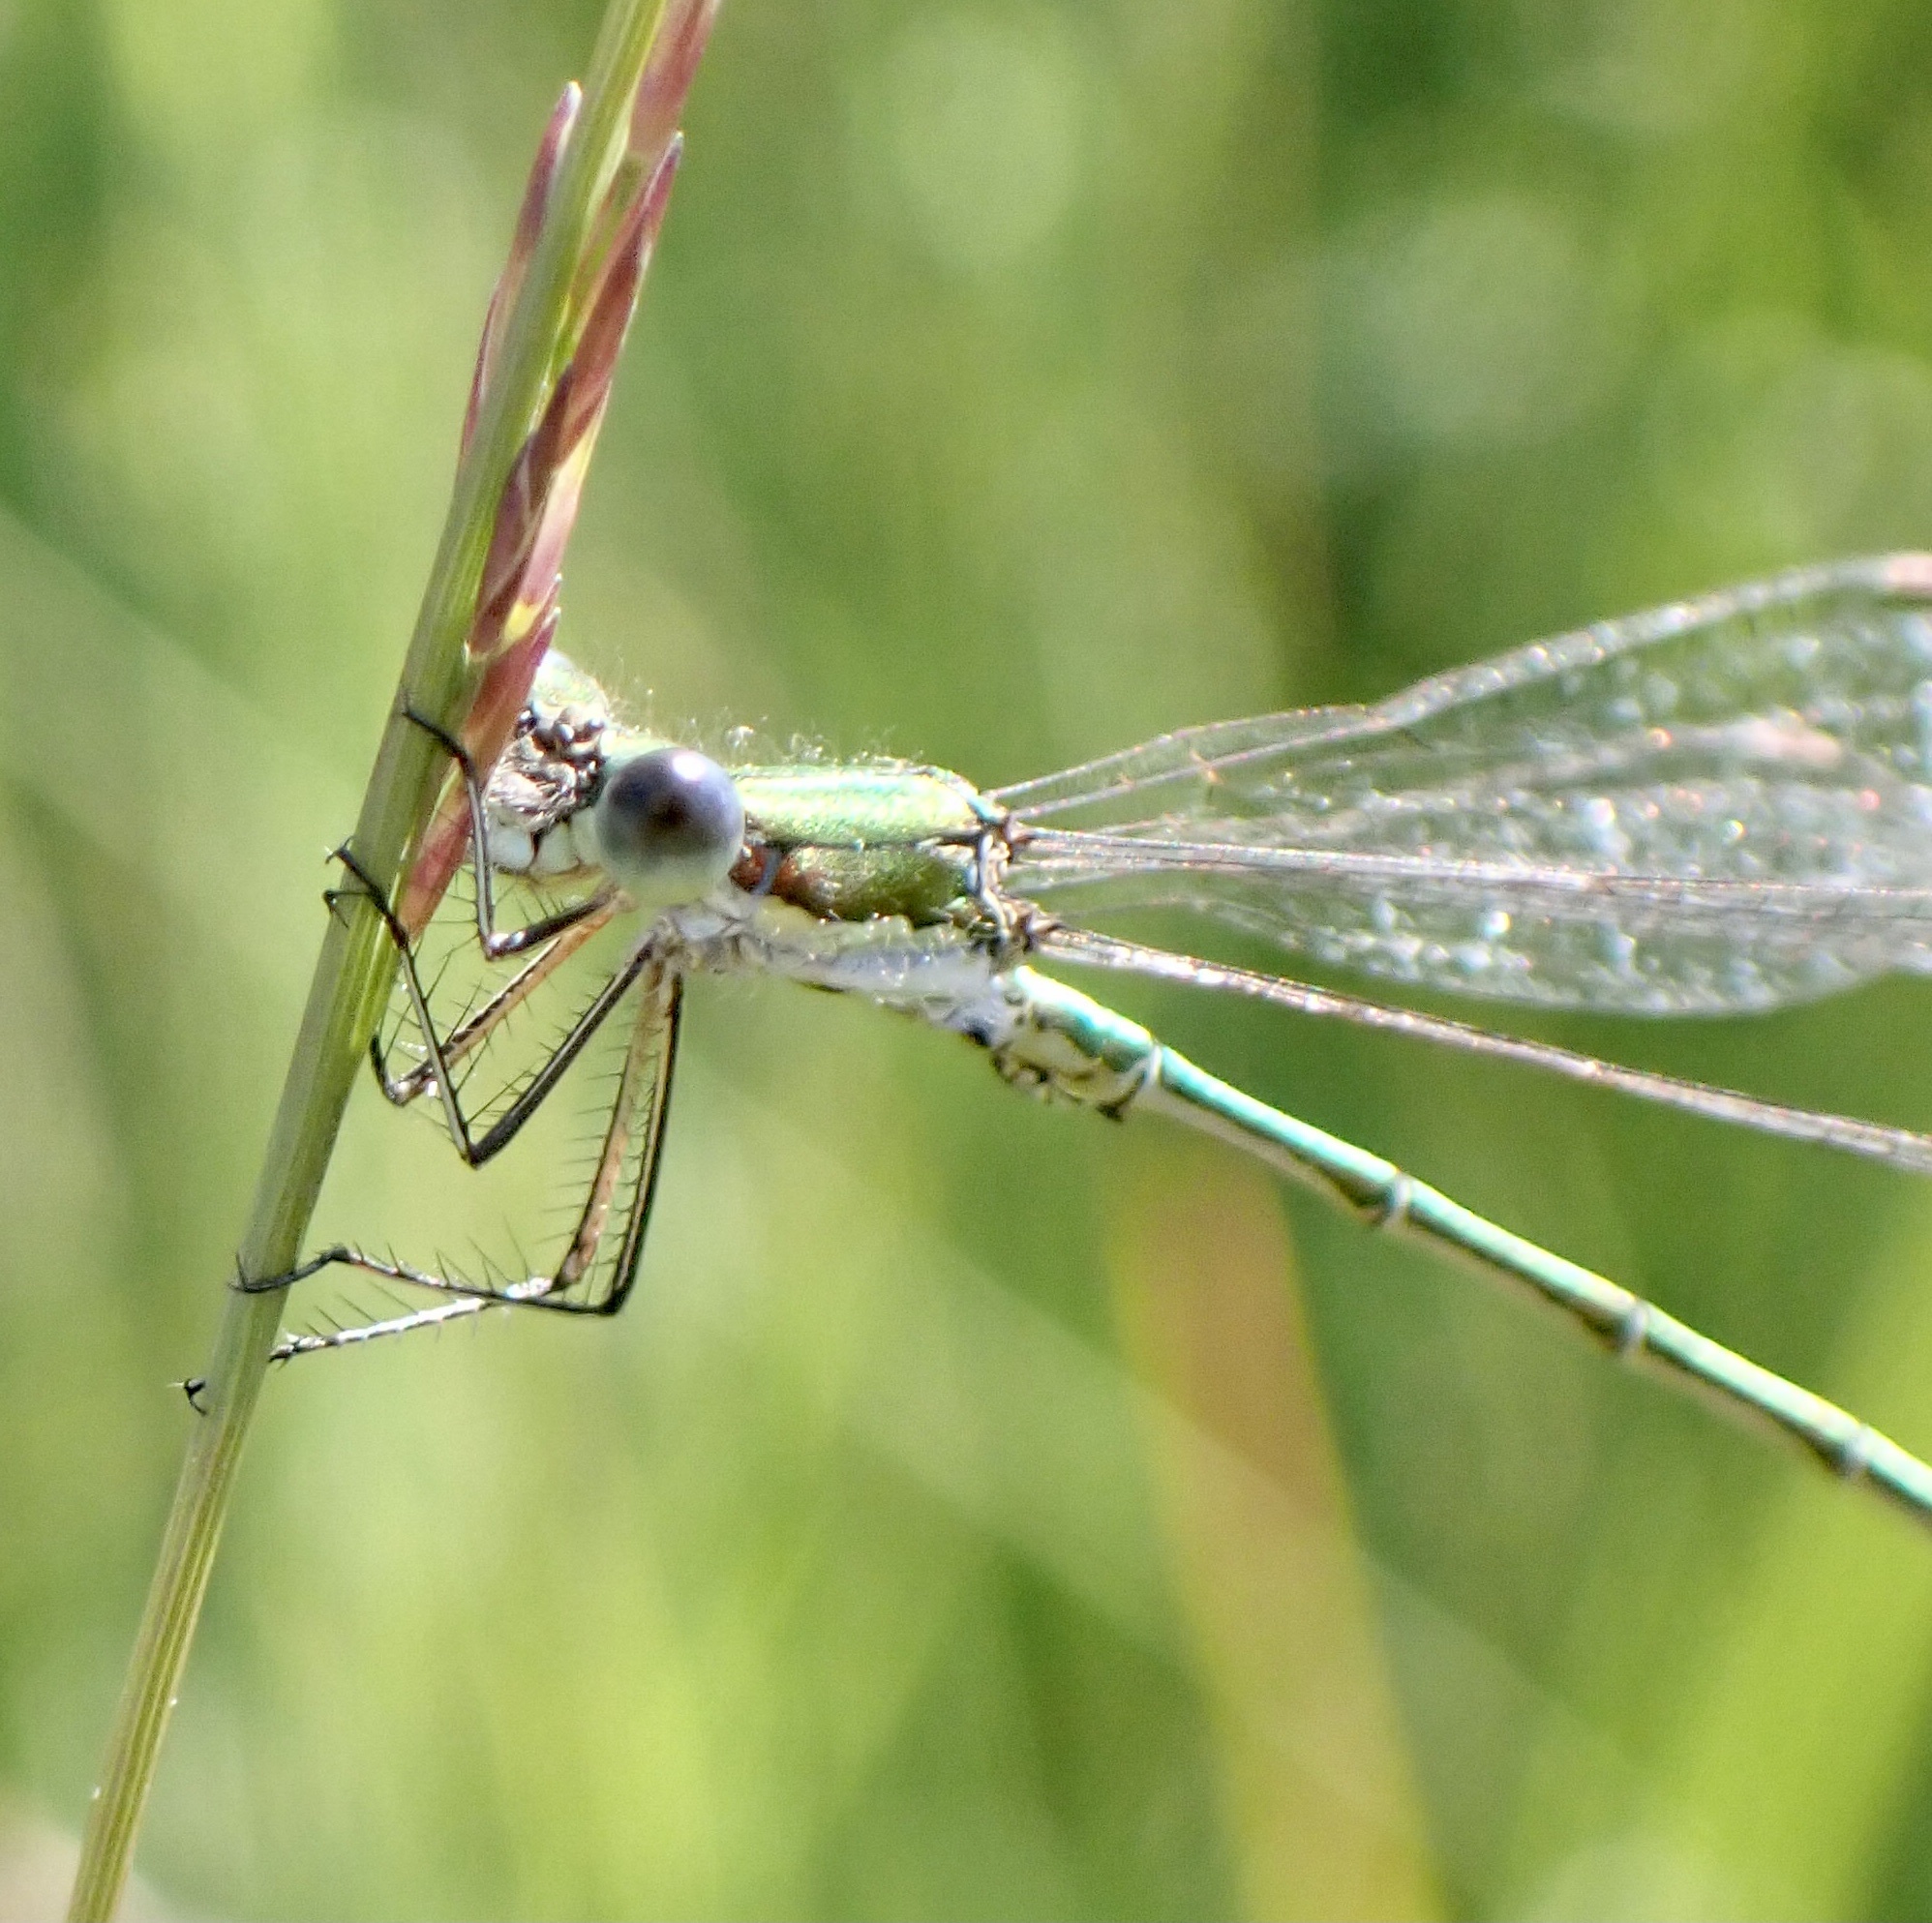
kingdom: Animalia
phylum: Arthropoda
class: Insecta
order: Odonata
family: Lestidae
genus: Lestes
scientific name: Lestes virens
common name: Small emerald spreadwing
